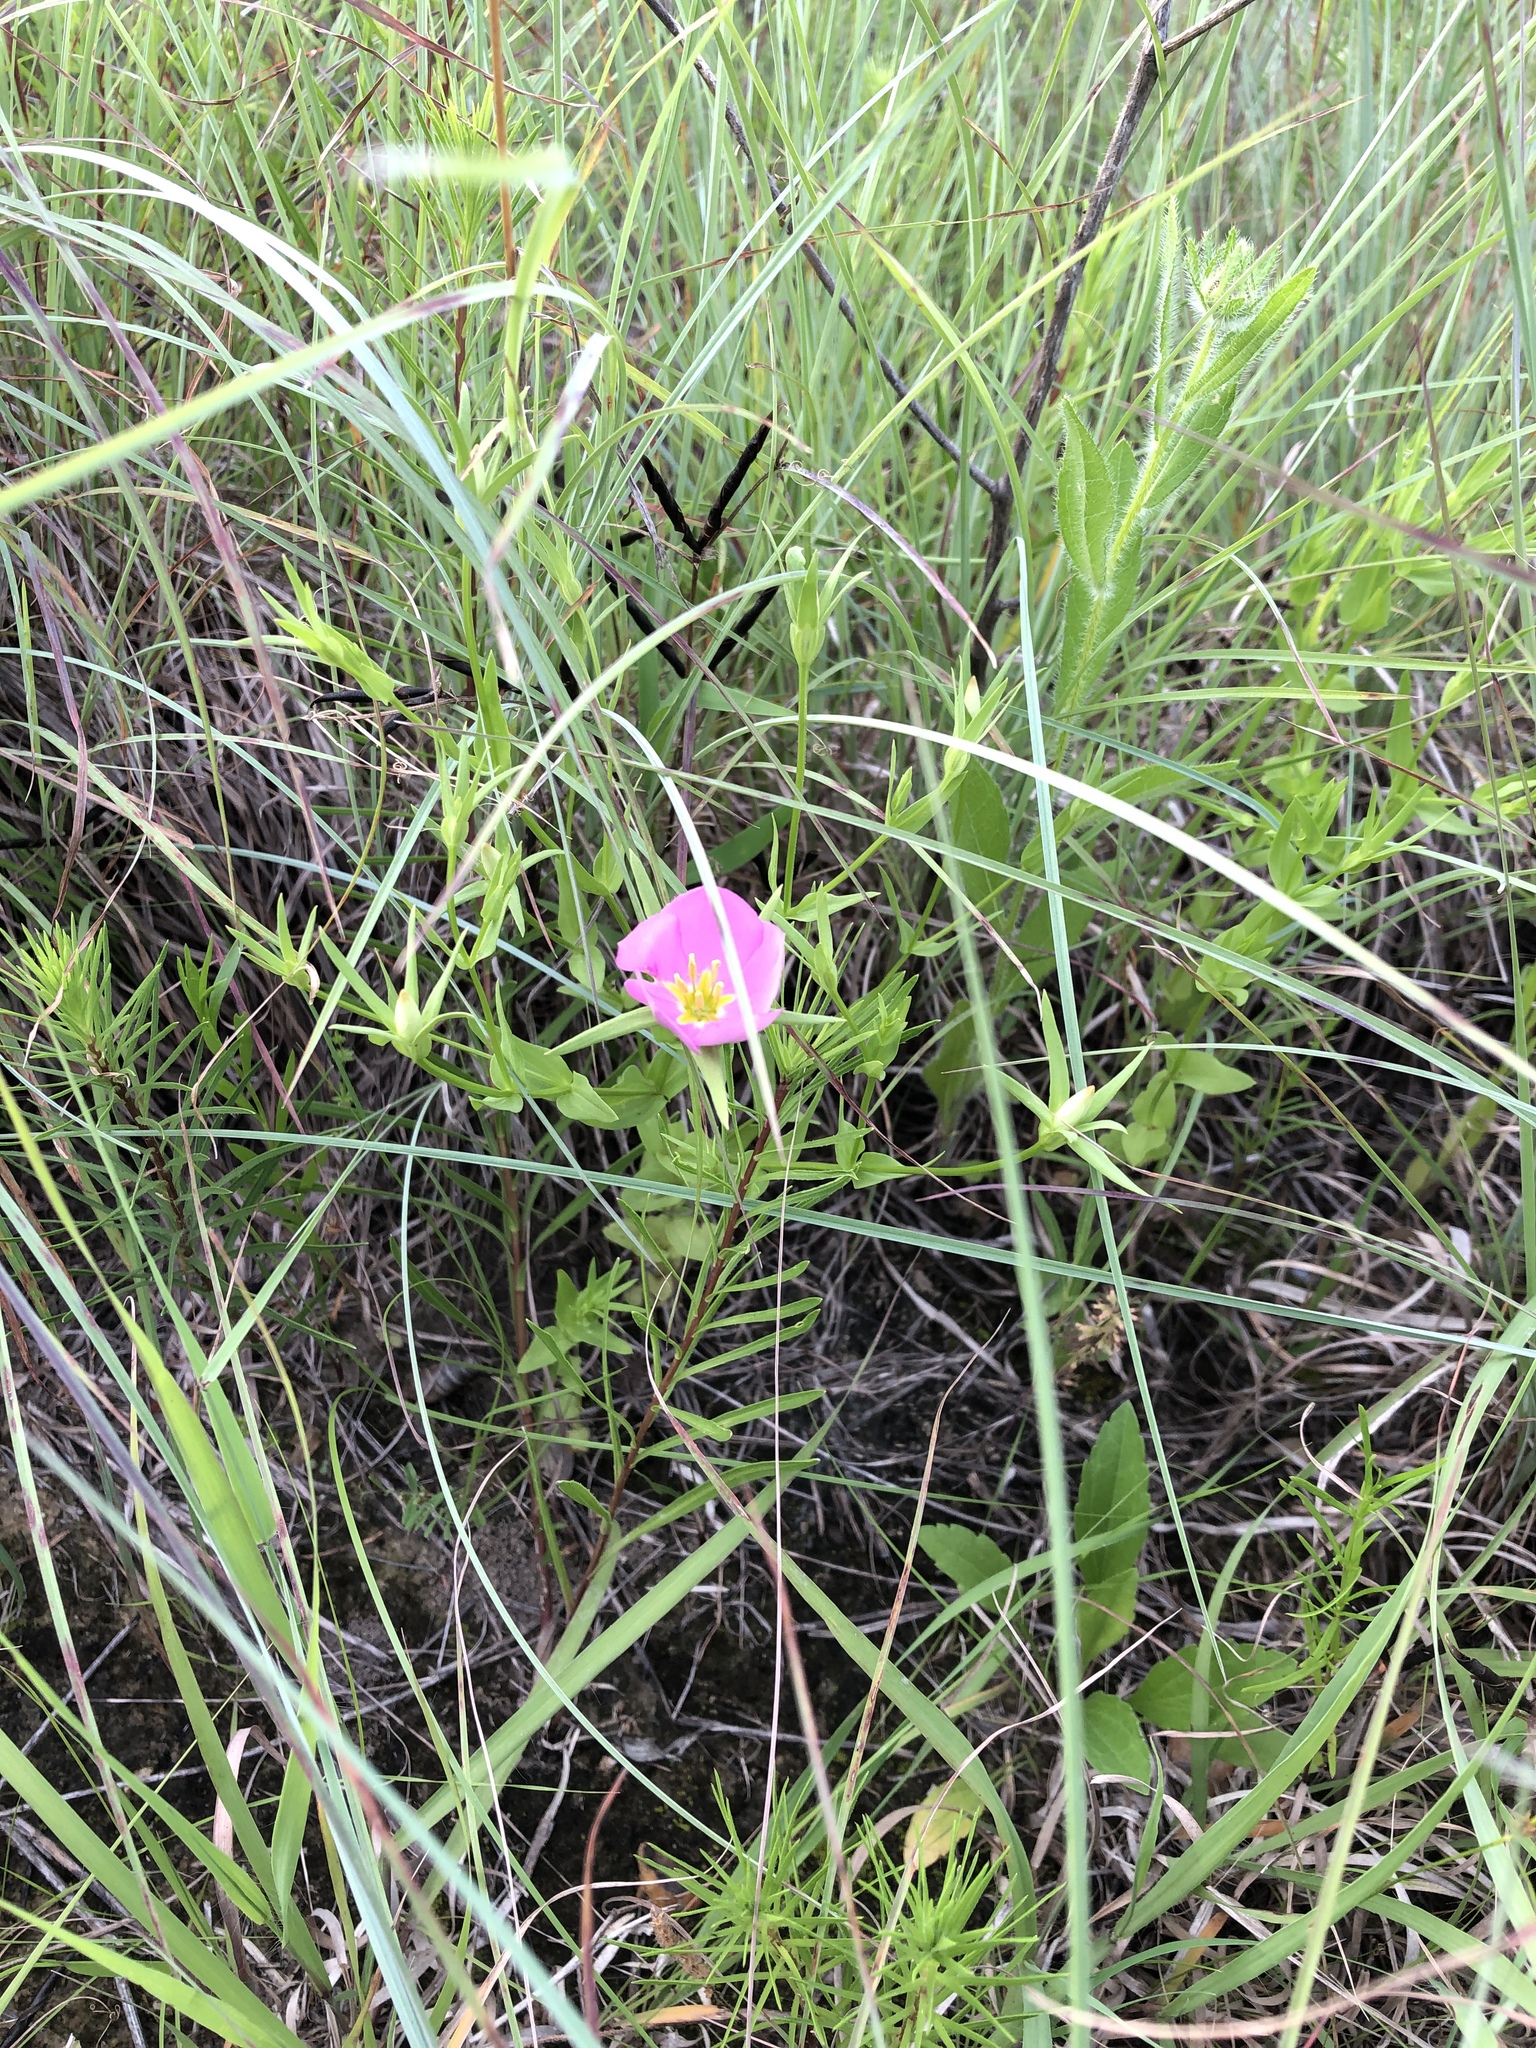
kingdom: Plantae
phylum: Tracheophyta
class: Magnoliopsida
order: Gentianales
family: Gentianaceae
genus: Sabatia
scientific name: Sabatia campestris
